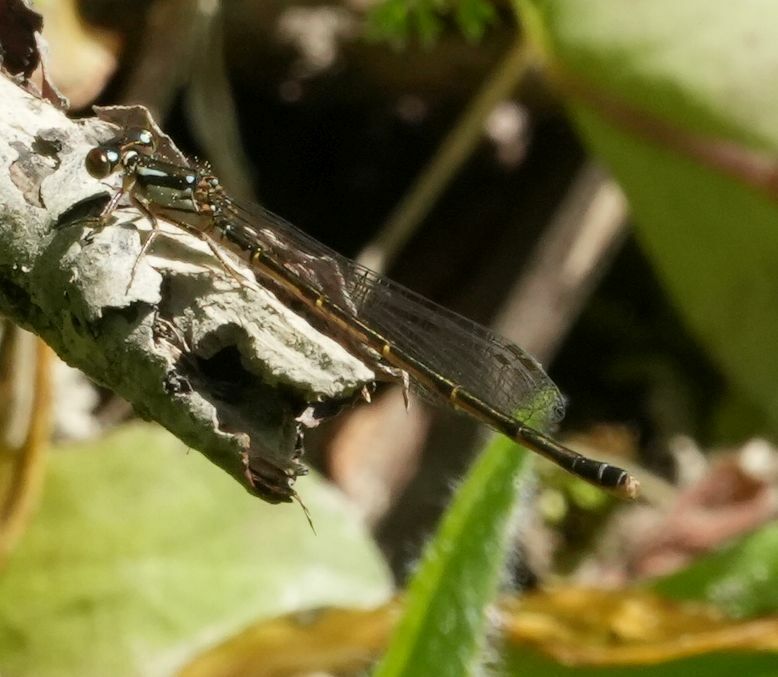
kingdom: Animalia
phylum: Arthropoda
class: Insecta
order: Odonata
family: Coenagrionidae
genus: Ischnura
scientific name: Ischnura posita
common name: Fragile forktail
